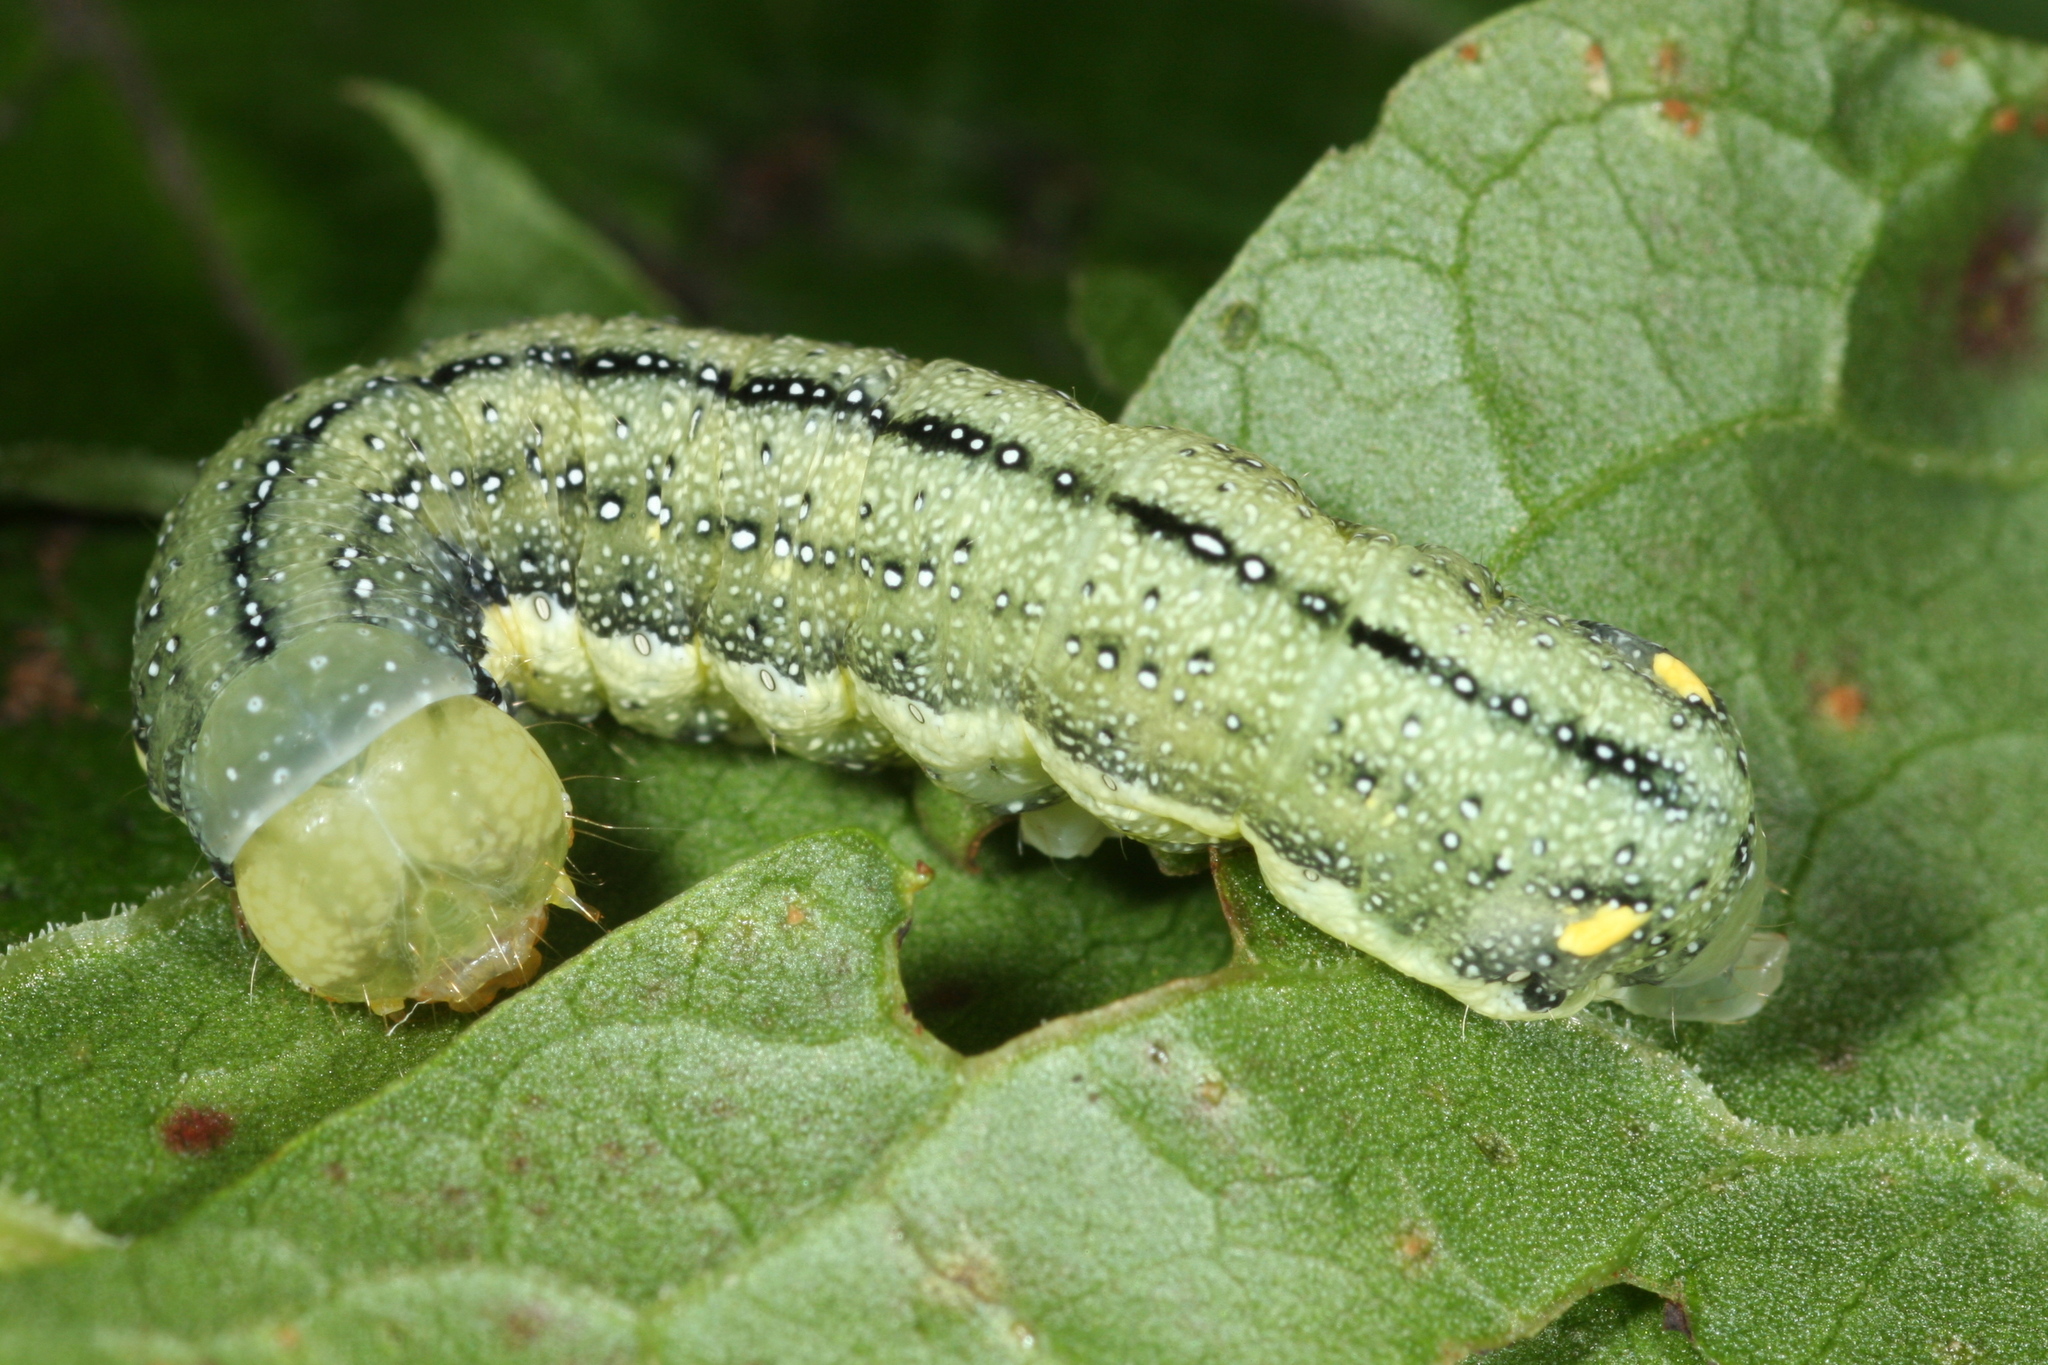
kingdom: Animalia
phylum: Arthropoda
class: Insecta
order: Lepidoptera
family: Noctuidae
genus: Trachea
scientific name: Trachea atriplicis
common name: Orache moth
